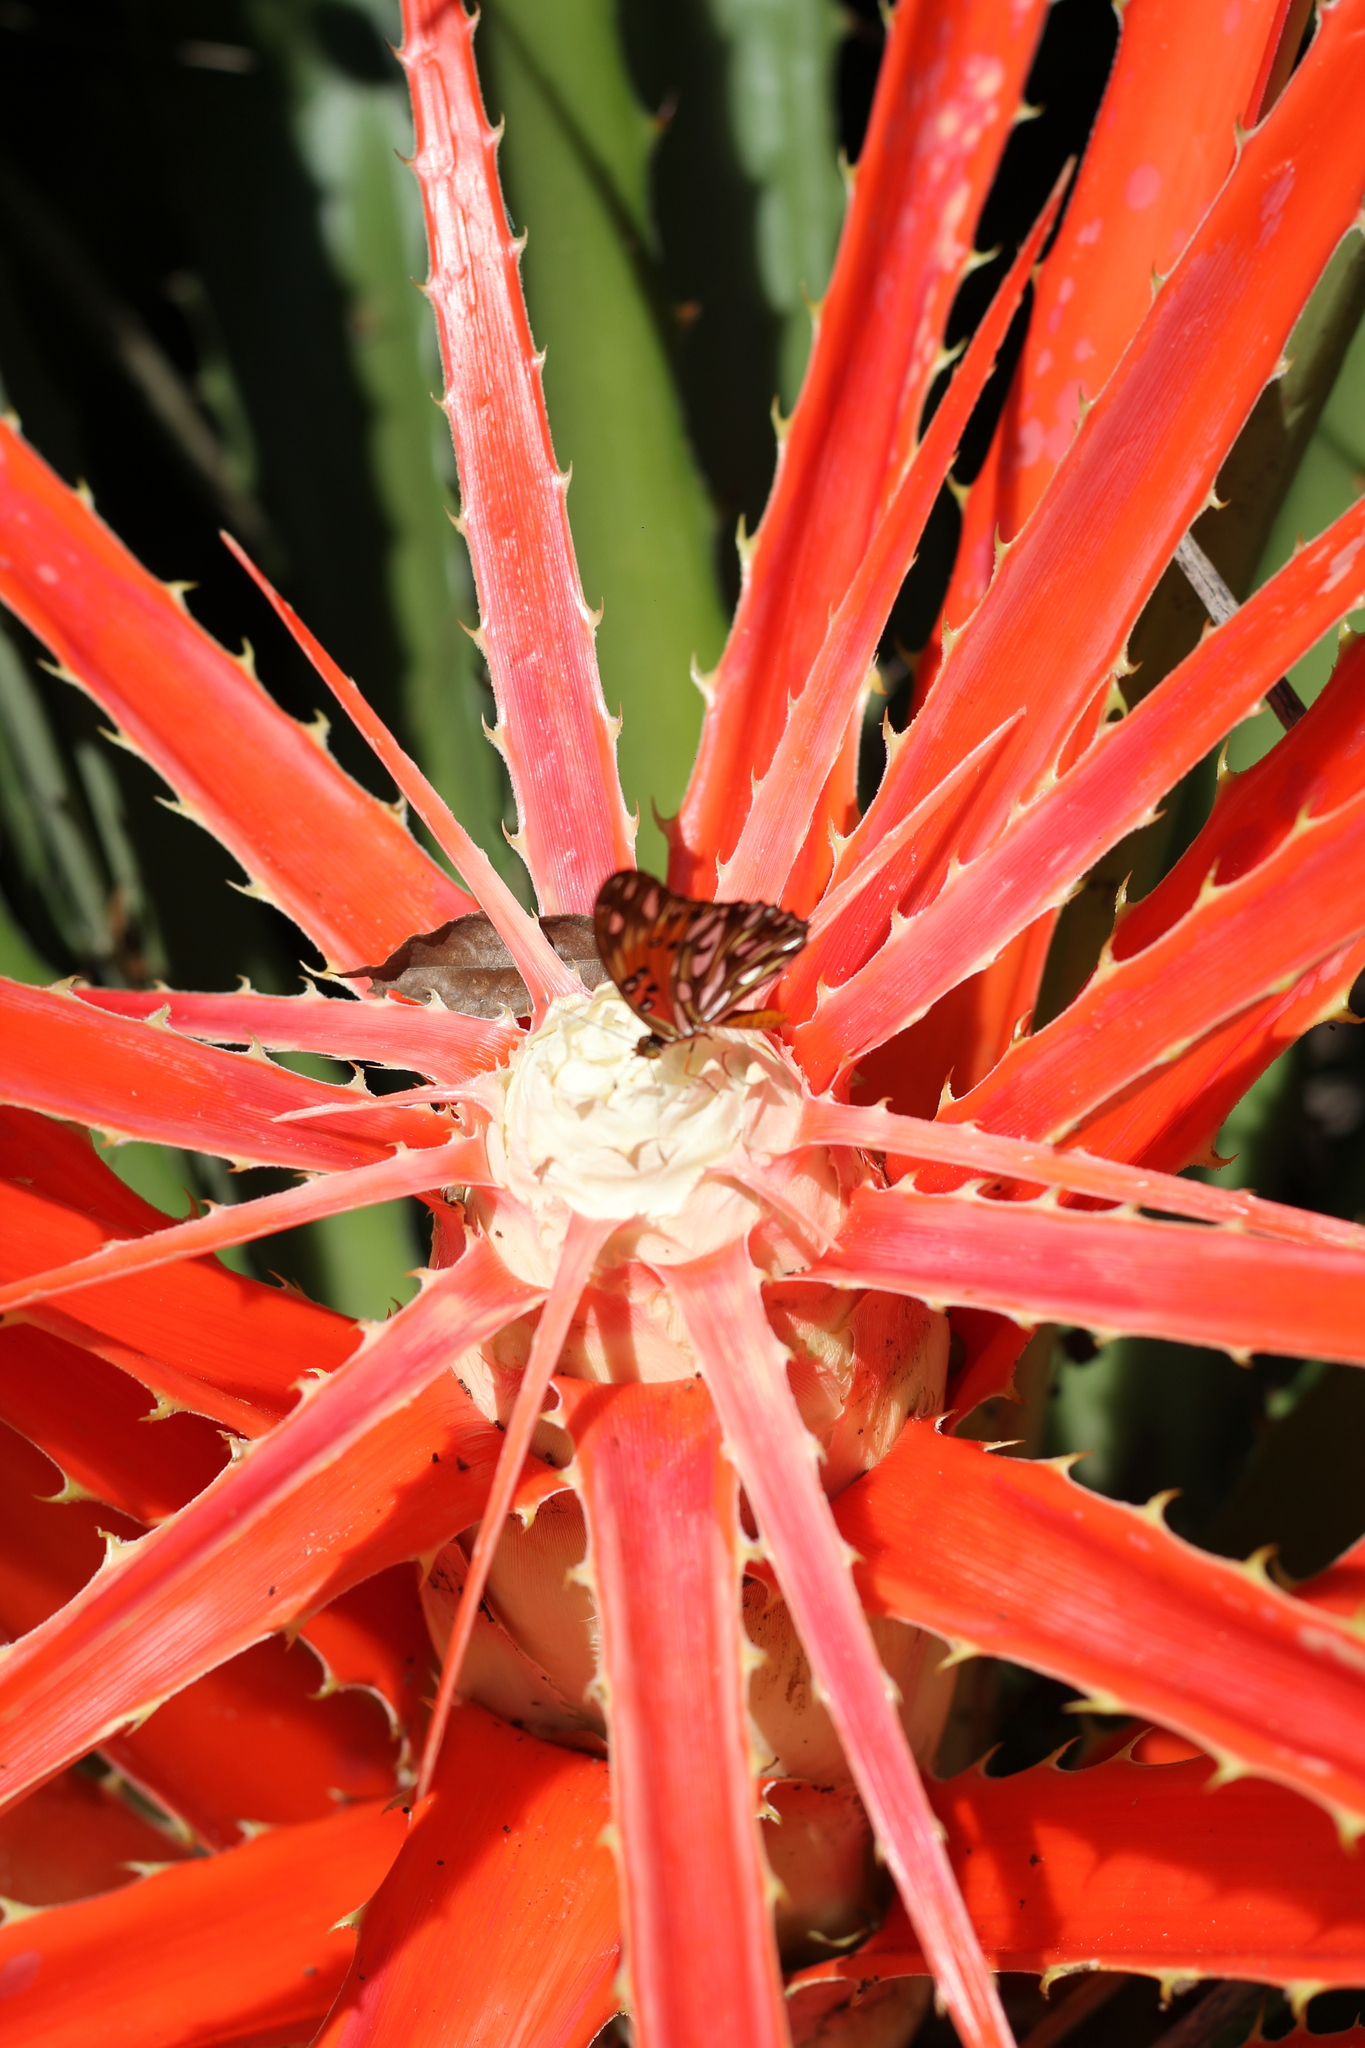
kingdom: Animalia
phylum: Arthropoda
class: Insecta
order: Lepidoptera
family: Nymphalidae
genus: Dione
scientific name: Dione vanillae
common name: Gulf fritillary
